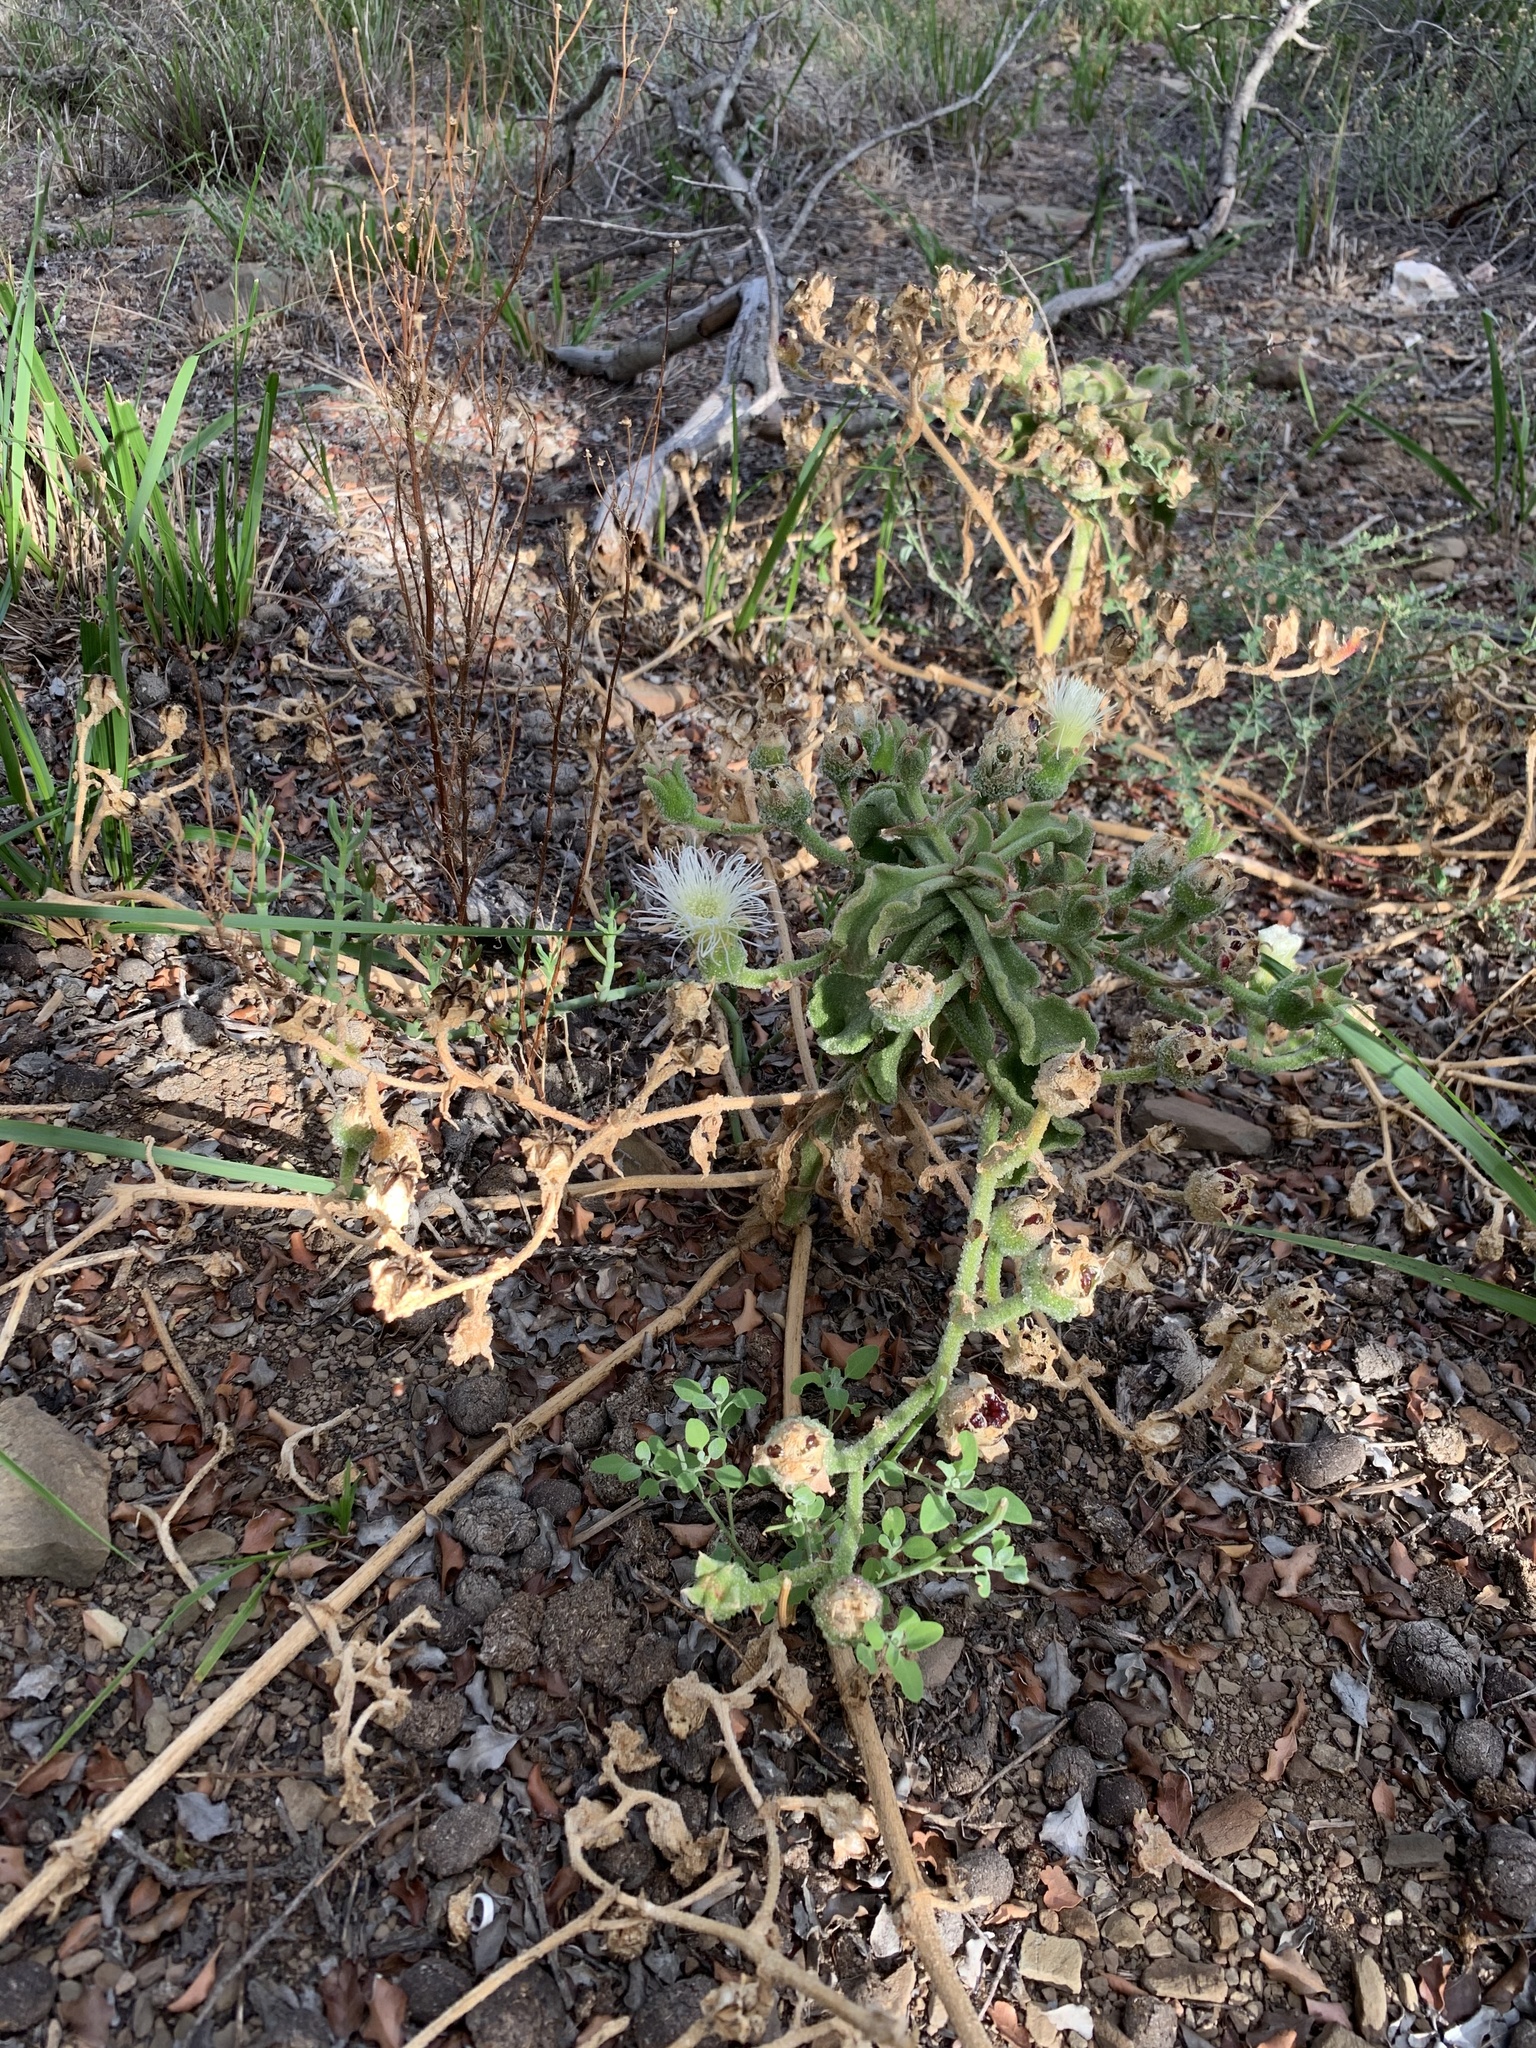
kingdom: Plantae
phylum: Tracheophyta
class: Magnoliopsida
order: Caryophyllales
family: Aizoaceae
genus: Mesembryanthemum
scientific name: Mesembryanthemum crystallinum
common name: Common iceplant
